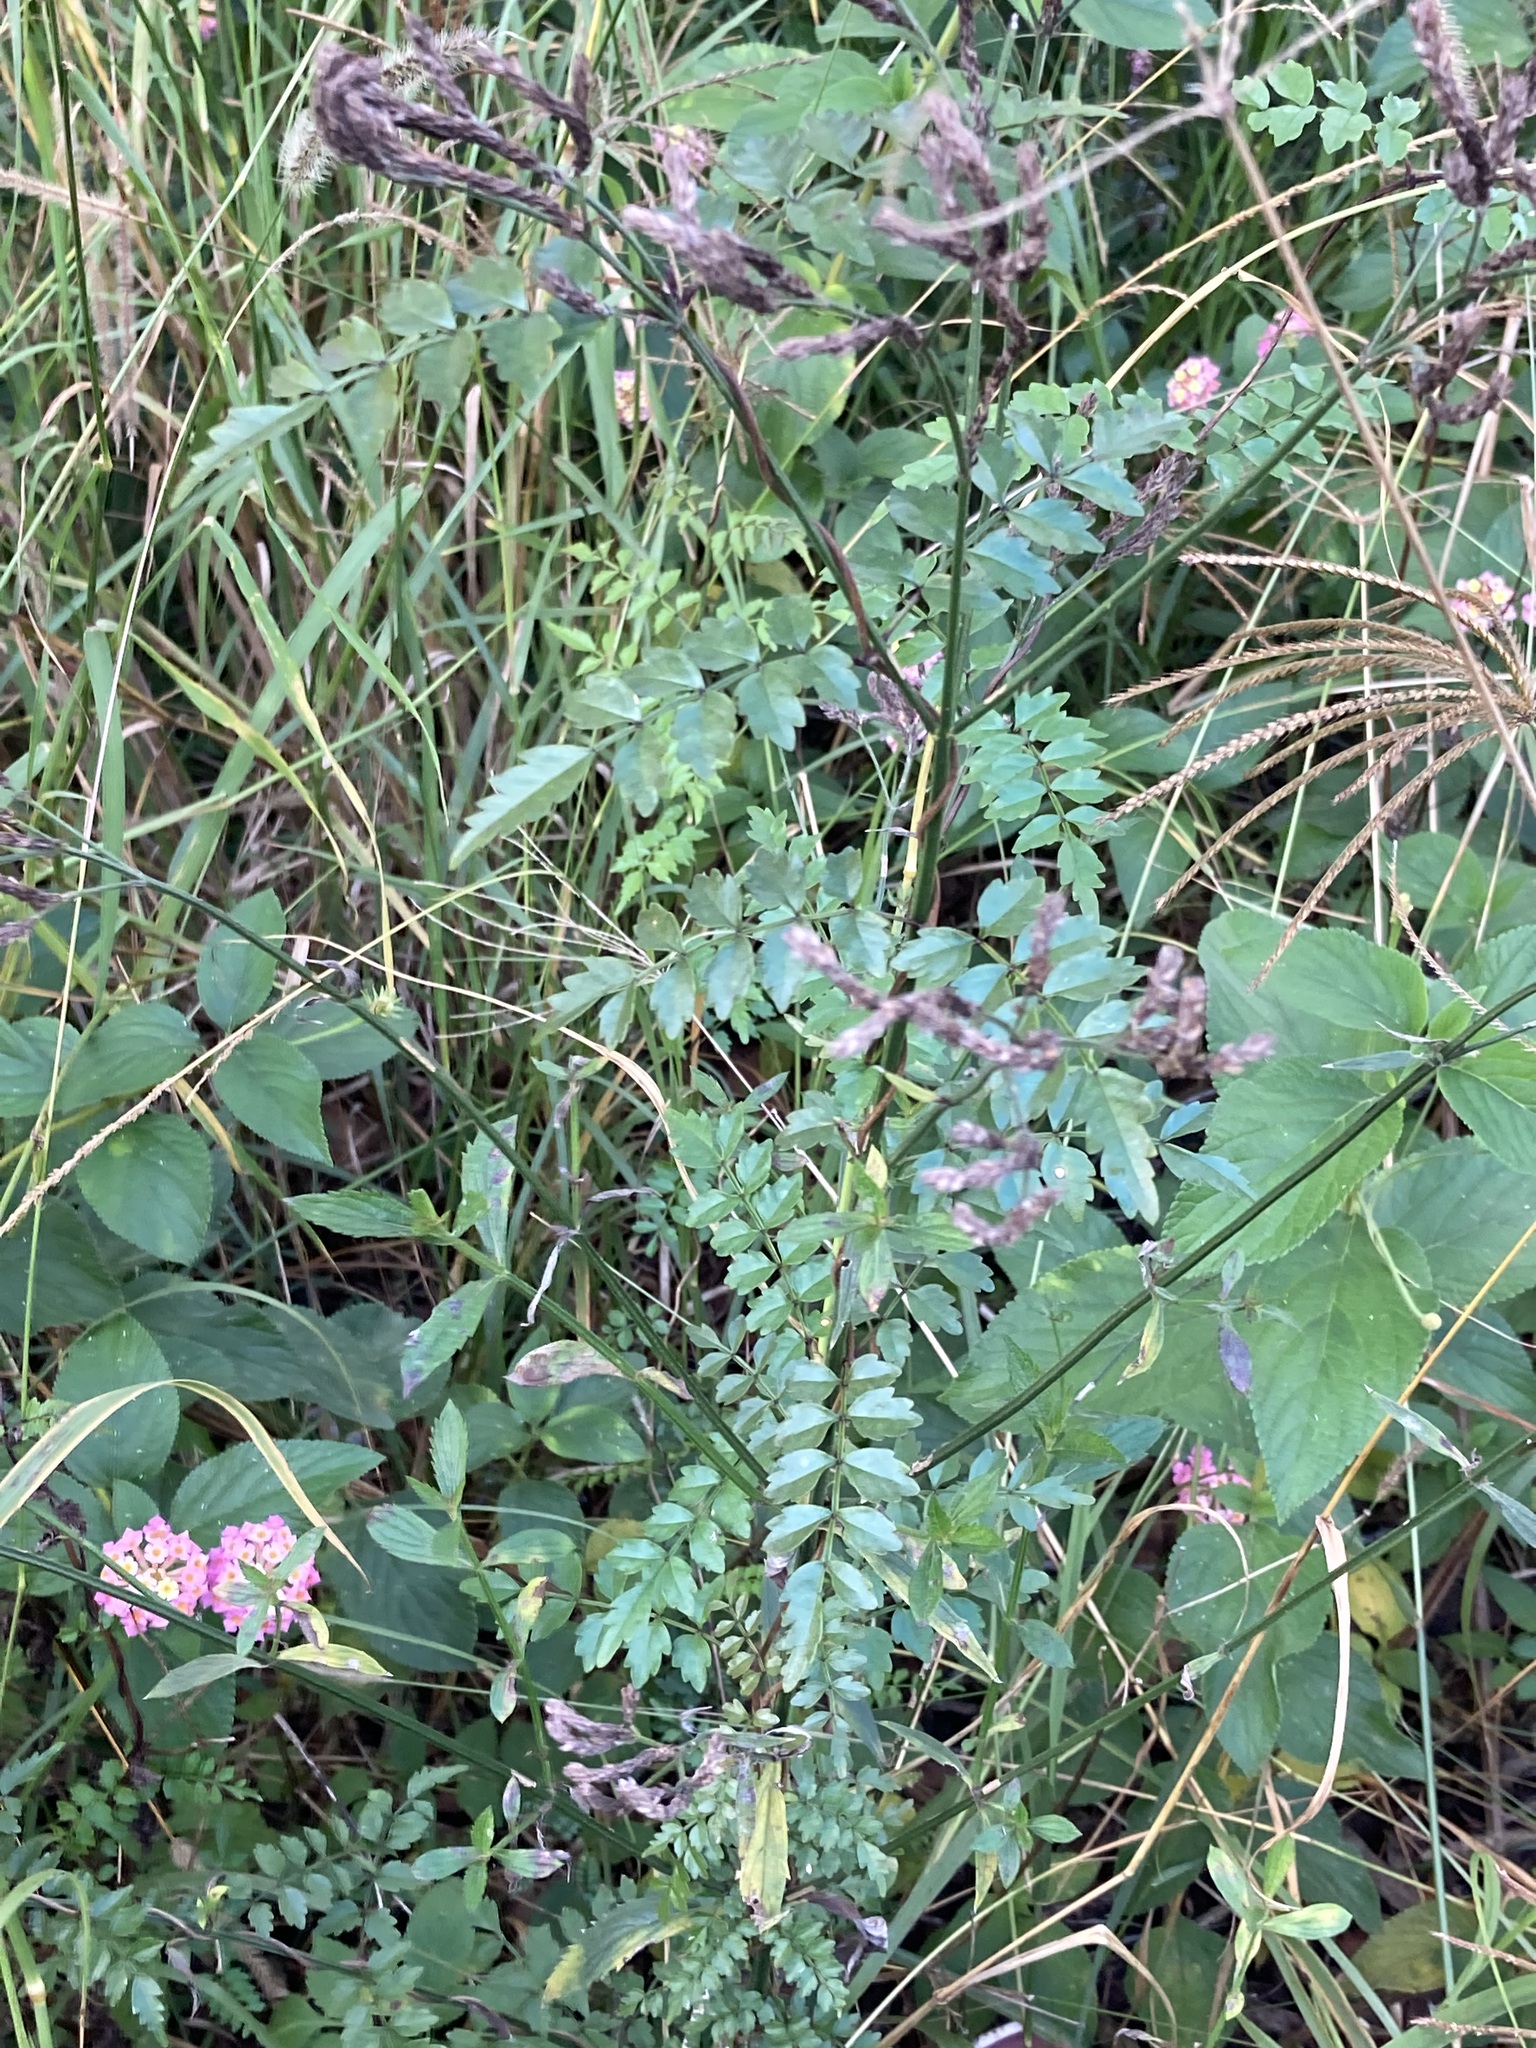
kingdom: Plantae
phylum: Tracheophyta
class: Magnoliopsida
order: Lamiales
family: Bignoniaceae
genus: Pandorea
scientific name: Pandorea pandorana
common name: Wonga-wonga-vine
